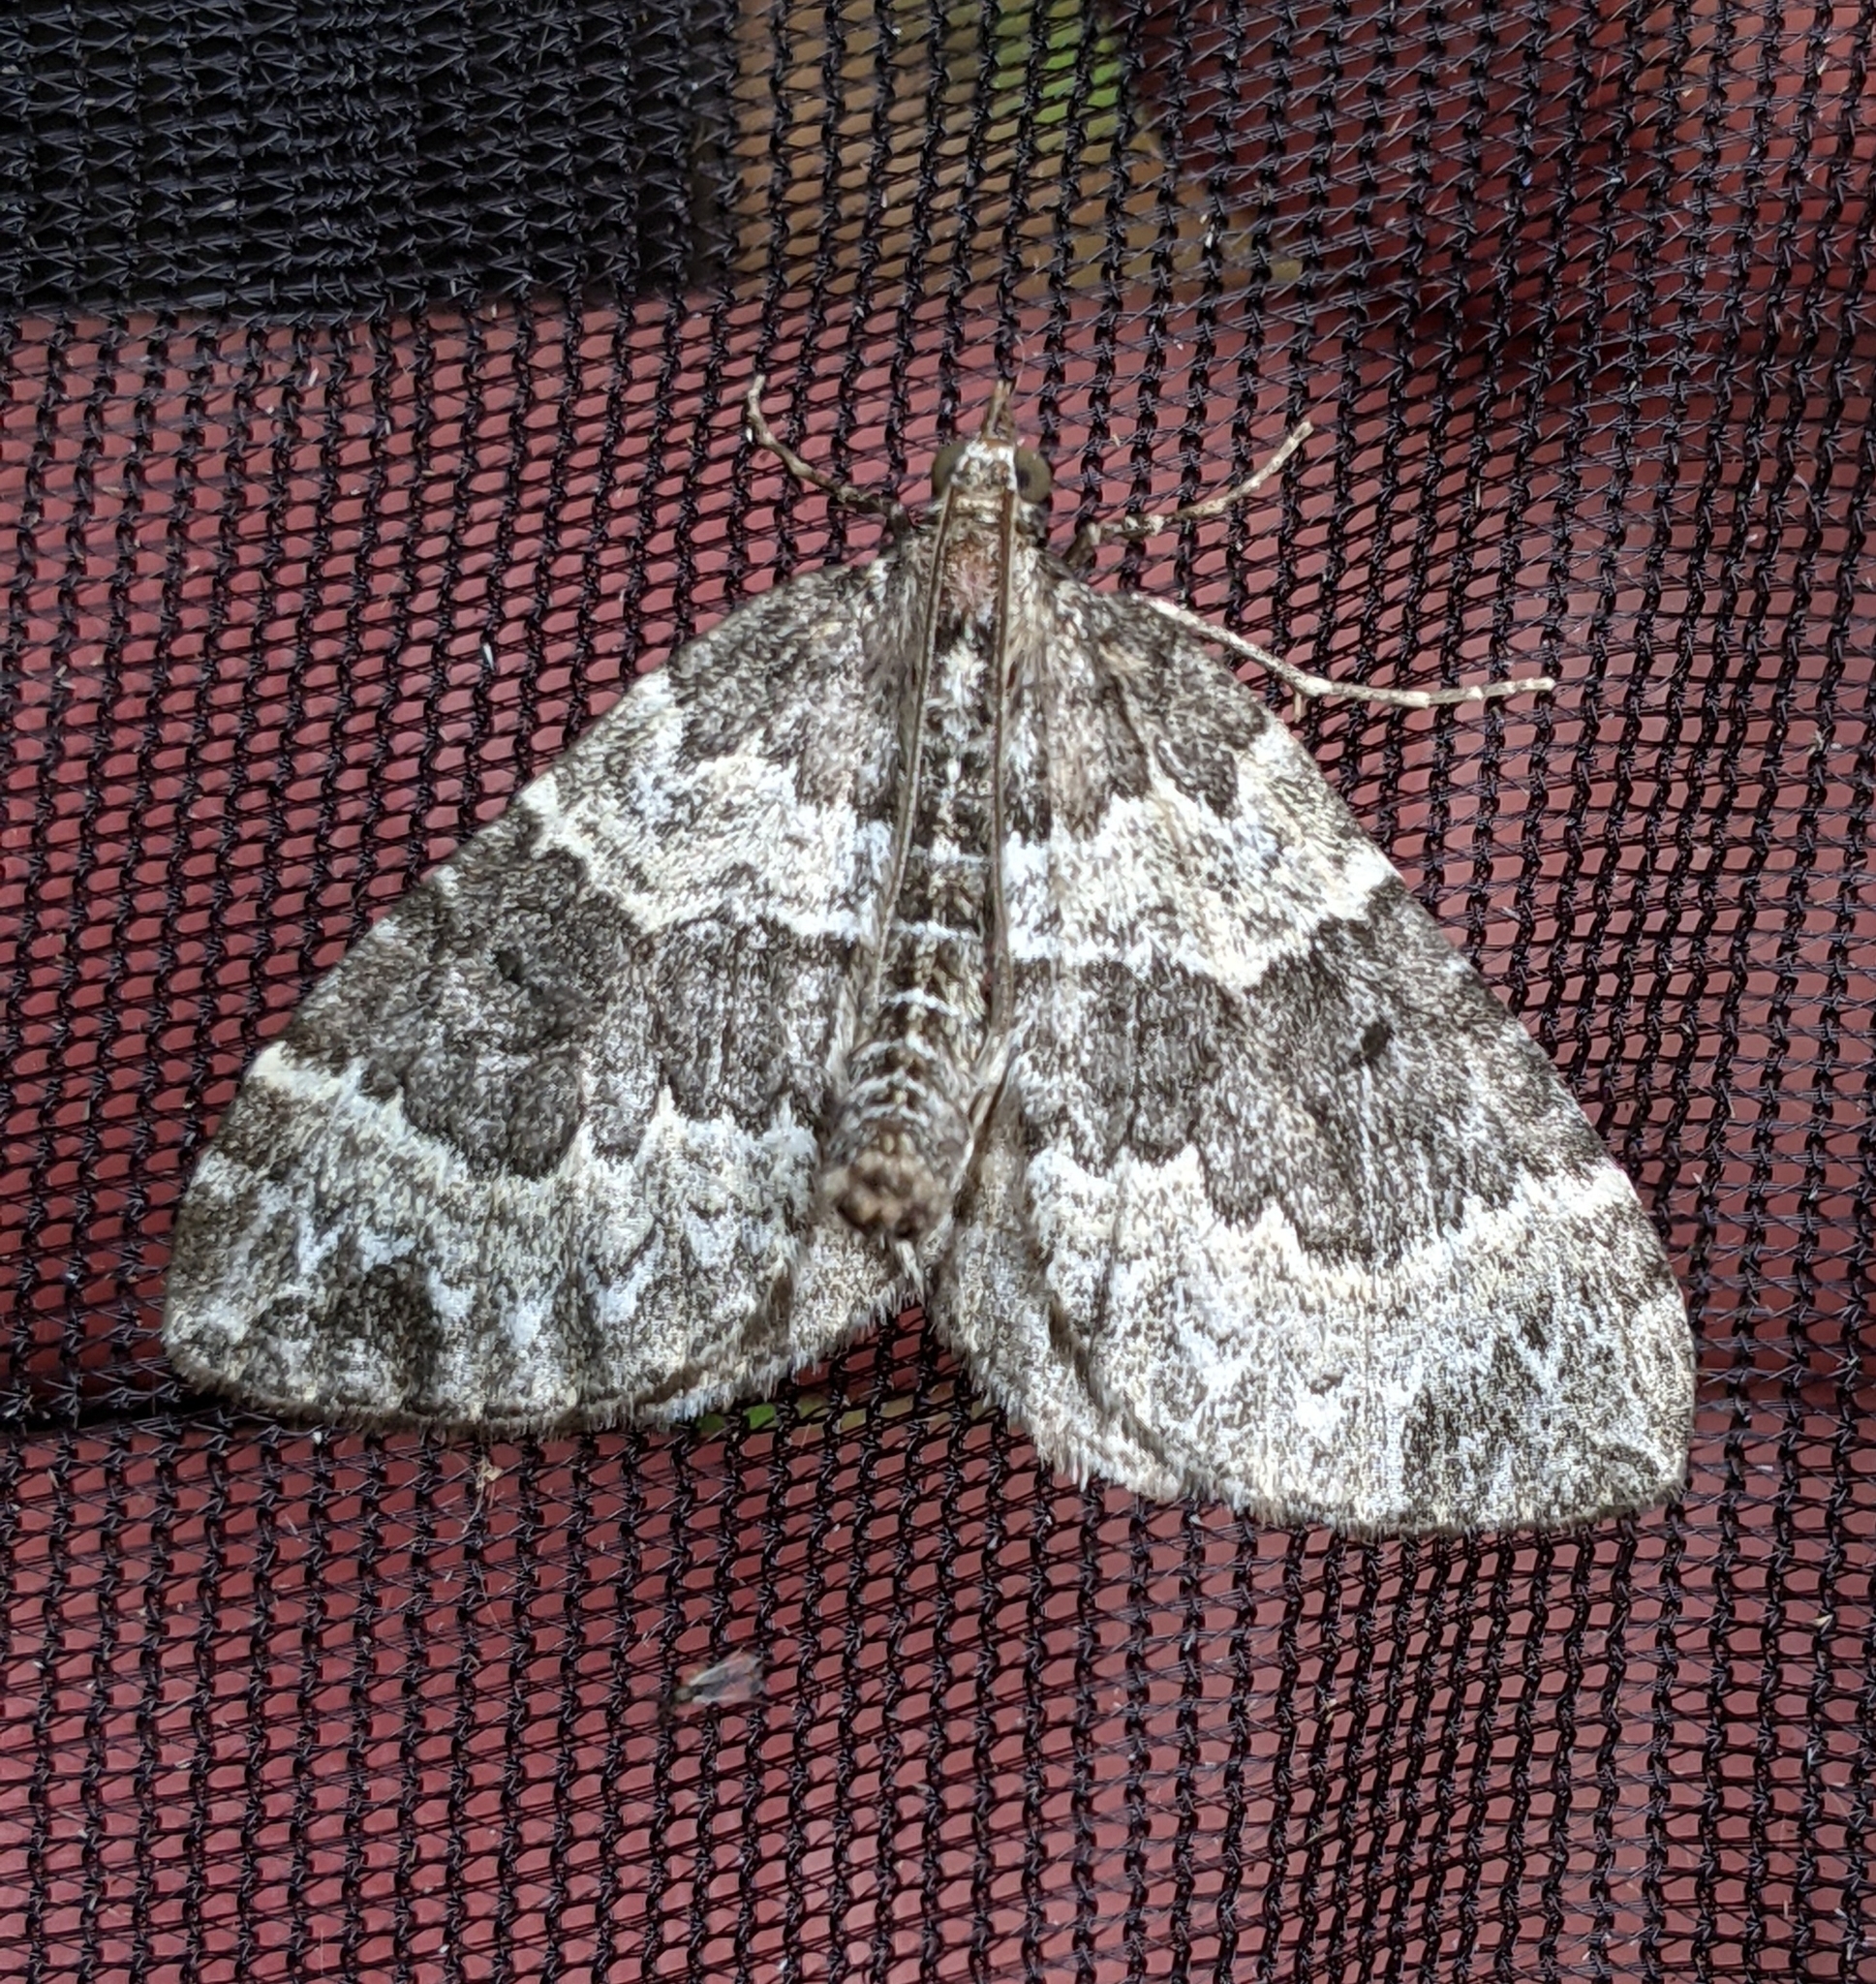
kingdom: Animalia
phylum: Arthropoda
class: Insecta
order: Lepidoptera
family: Geometridae
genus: Eulithis
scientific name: Eulithis explanata
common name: White eulithis
